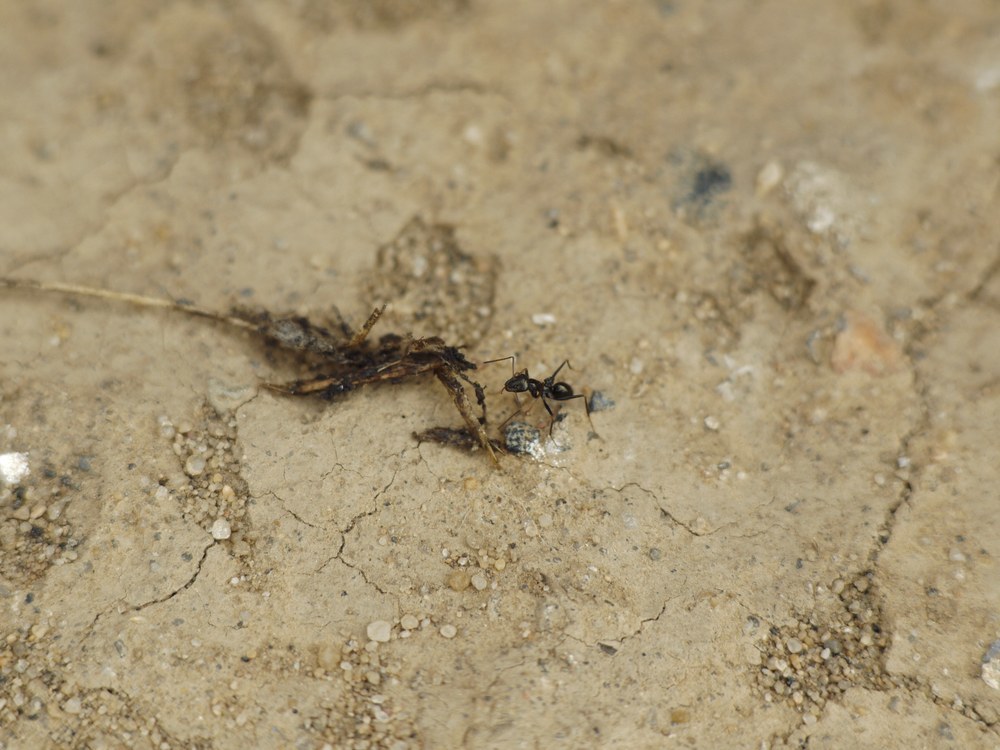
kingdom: Animalia
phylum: Arthropoda
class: Insecta
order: Hymenoptera
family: Formicidae
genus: Cataglyphis
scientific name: Cataglyphis aenescens
